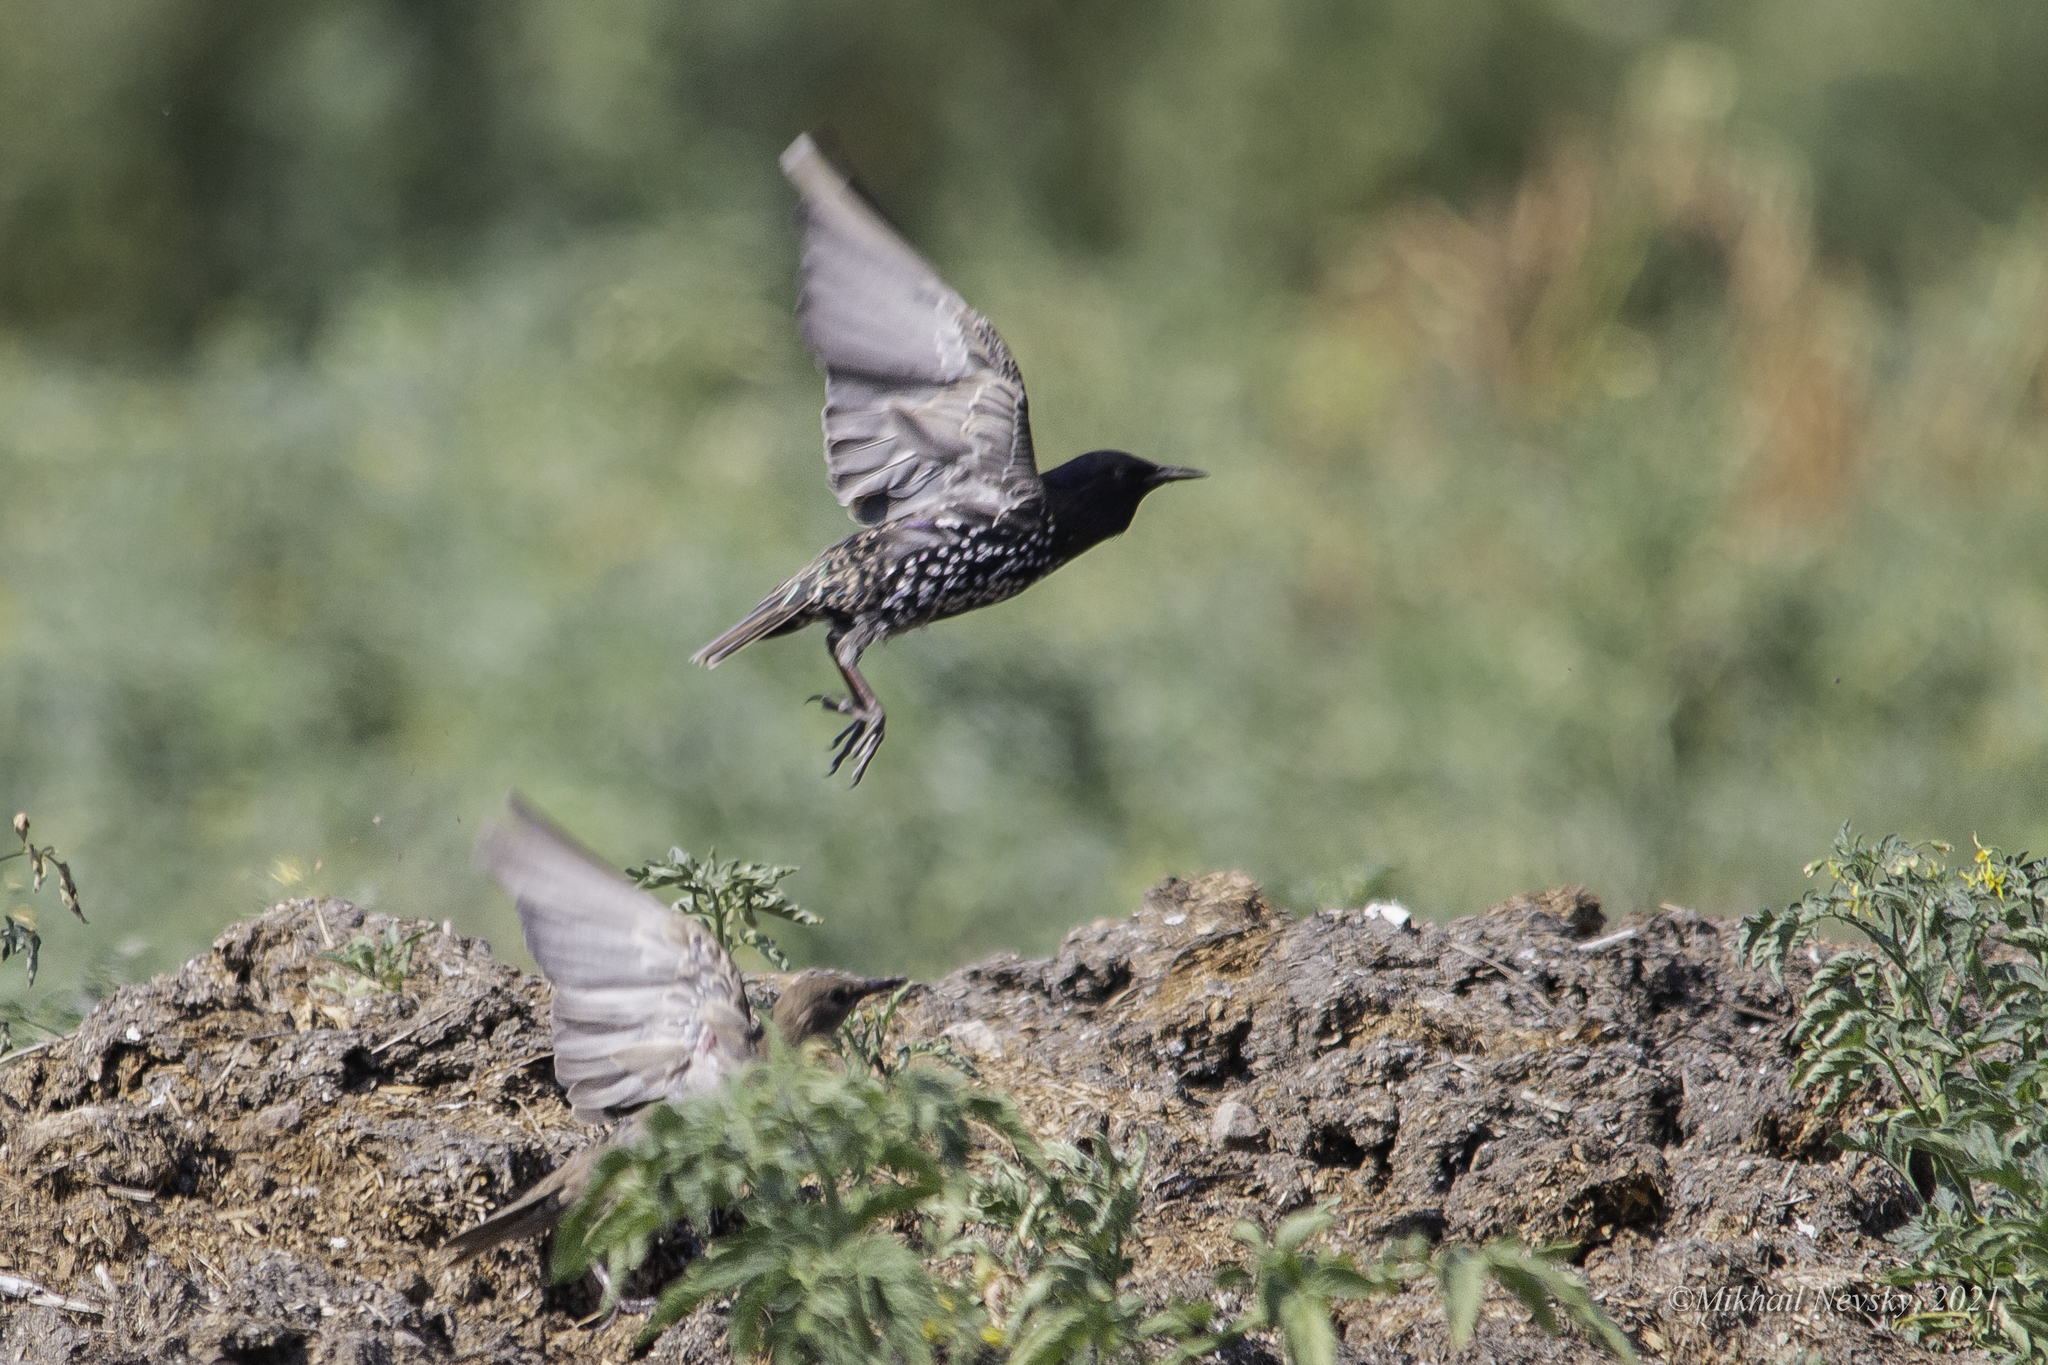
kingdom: Animalia
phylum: Chordata
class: Aves
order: Passeriformes
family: Sturnidae
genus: Sturnus
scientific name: Sturnus vulgaris
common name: Common starling
